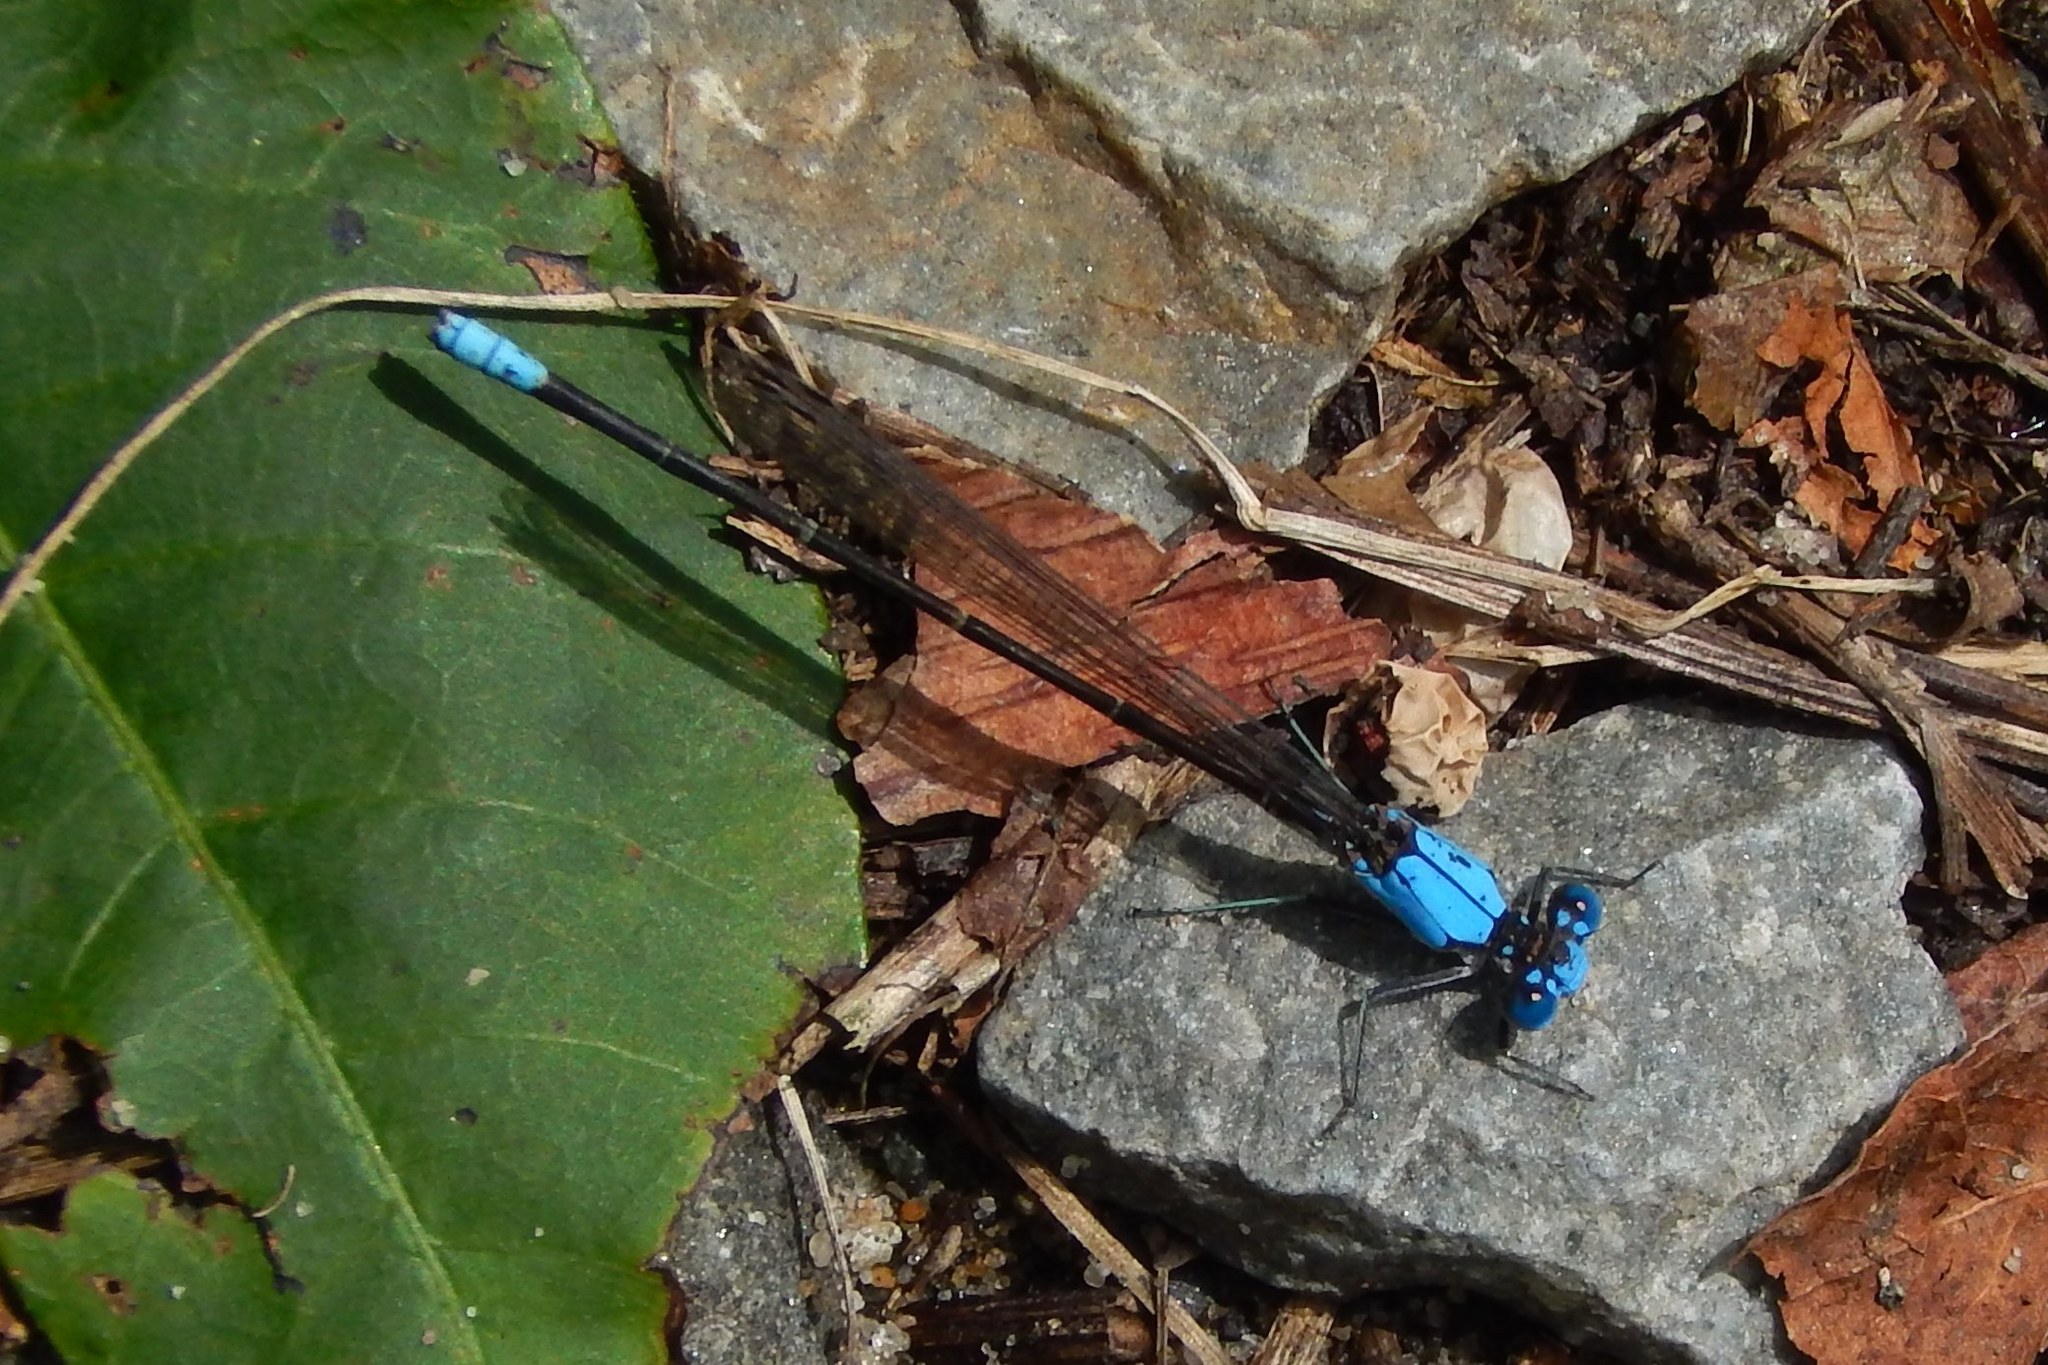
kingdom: Animalia
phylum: Arthropoda
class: Insecta
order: Odonata
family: Coenagrionidae
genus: Argia
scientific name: Argia apicalis
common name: Blue-fronted dancer
